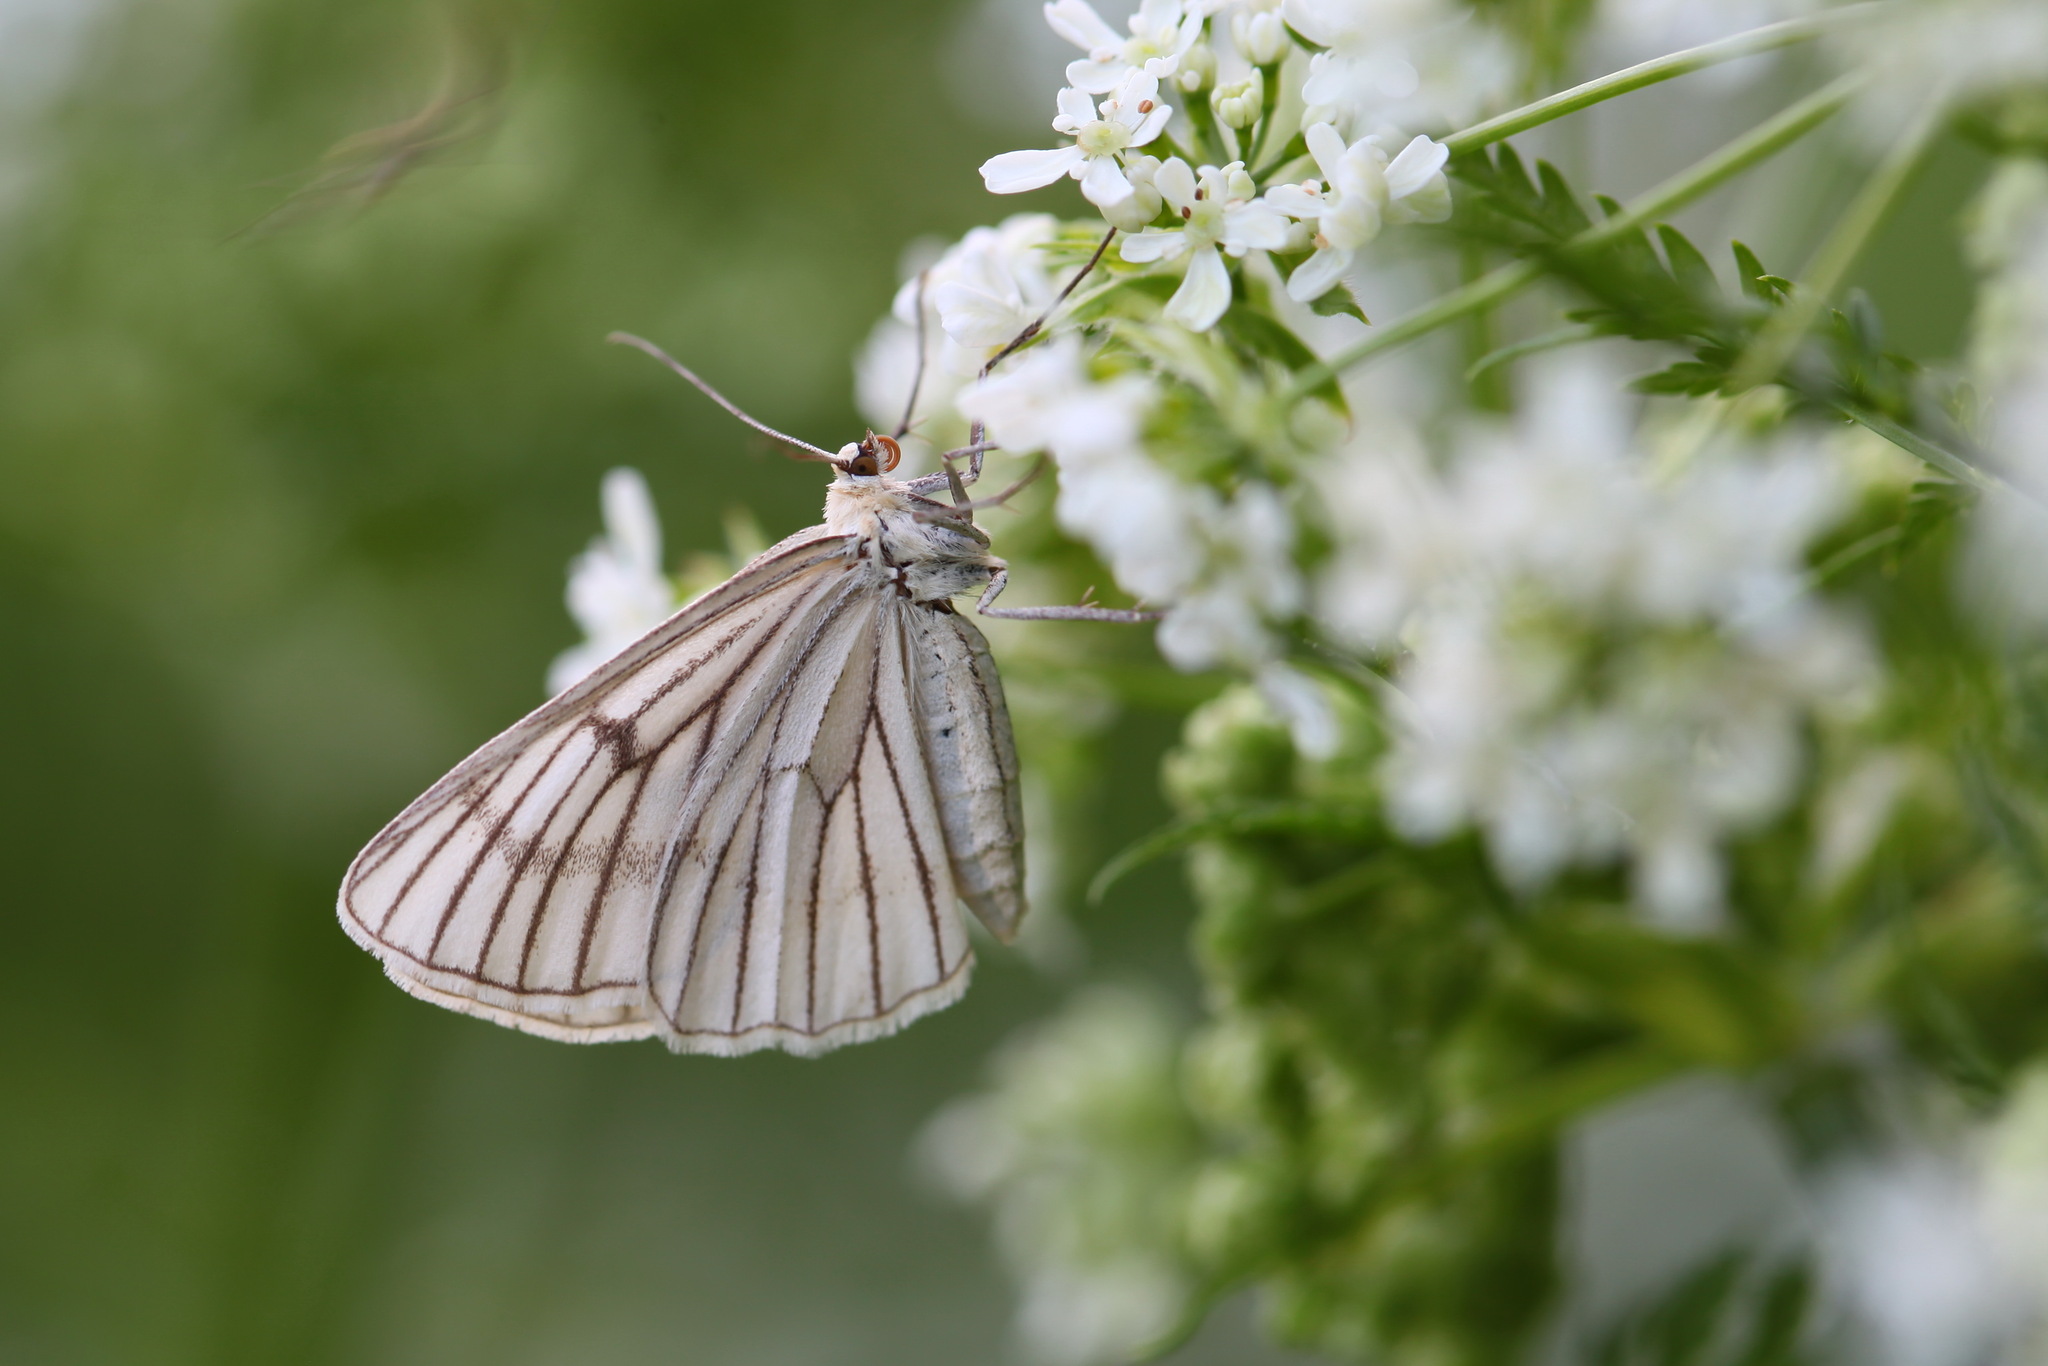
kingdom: Animalia
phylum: Arthropoda
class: Insecta
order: Lepidoptera
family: Geometridae
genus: Siona
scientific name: Siona lineata
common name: Black-veined moth
